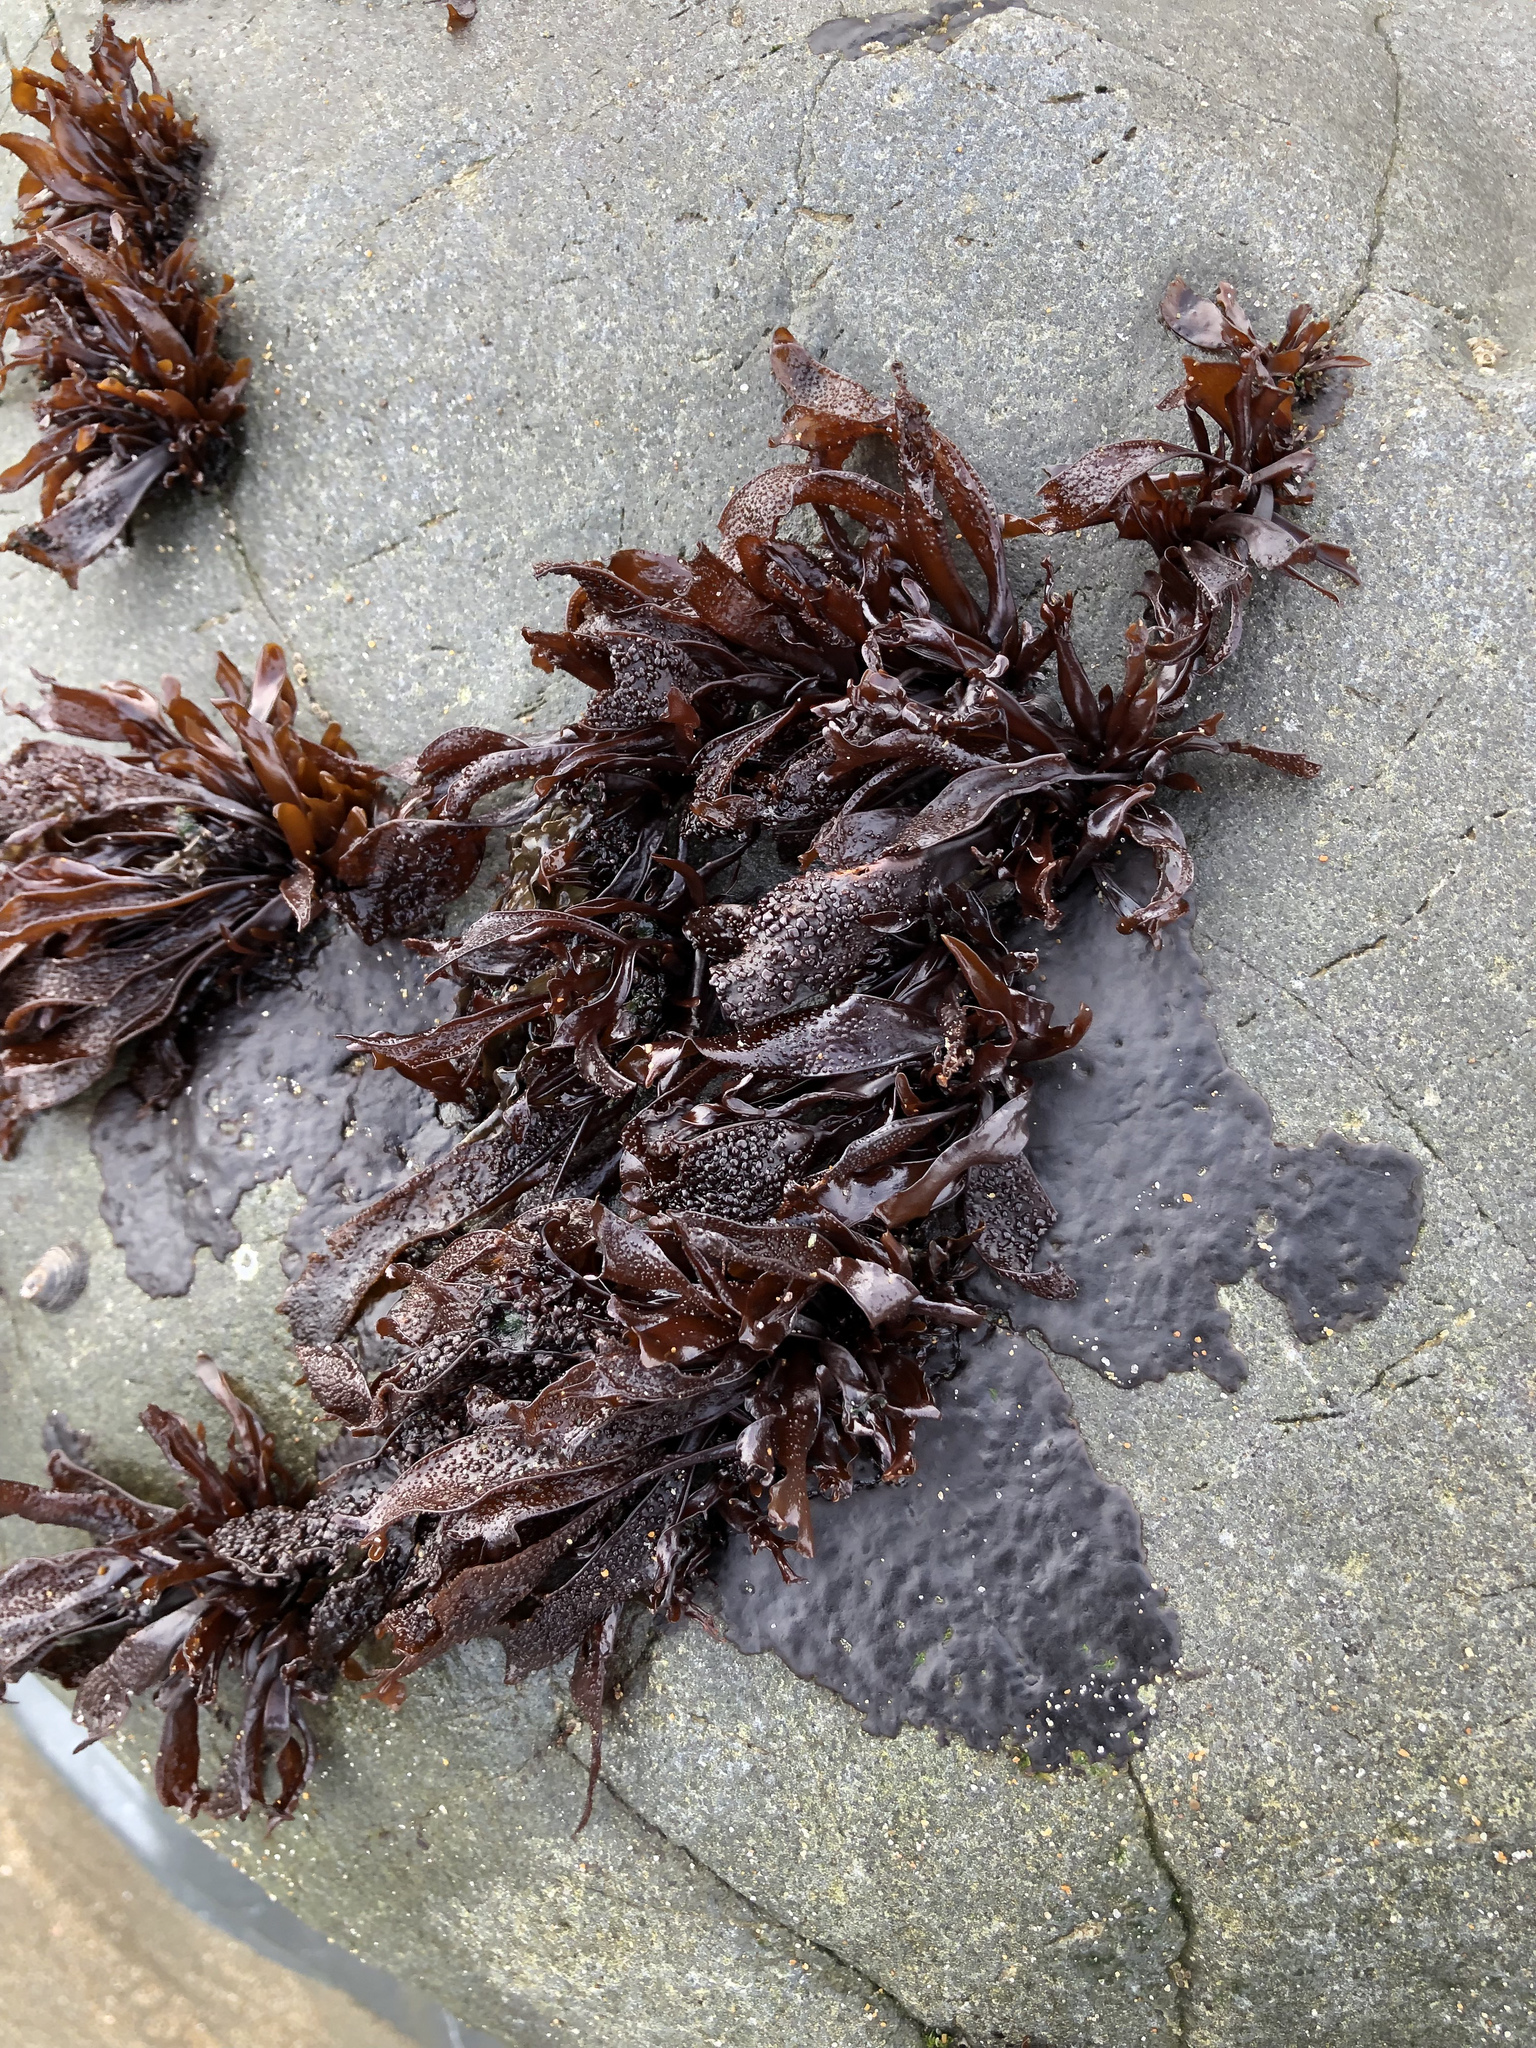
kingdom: Plantae
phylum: Rhodophyta
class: Florideophyceae
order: Gigartinales
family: Phyllophoraceae
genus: Mastocarpus
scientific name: Mastocarpus papillatus
